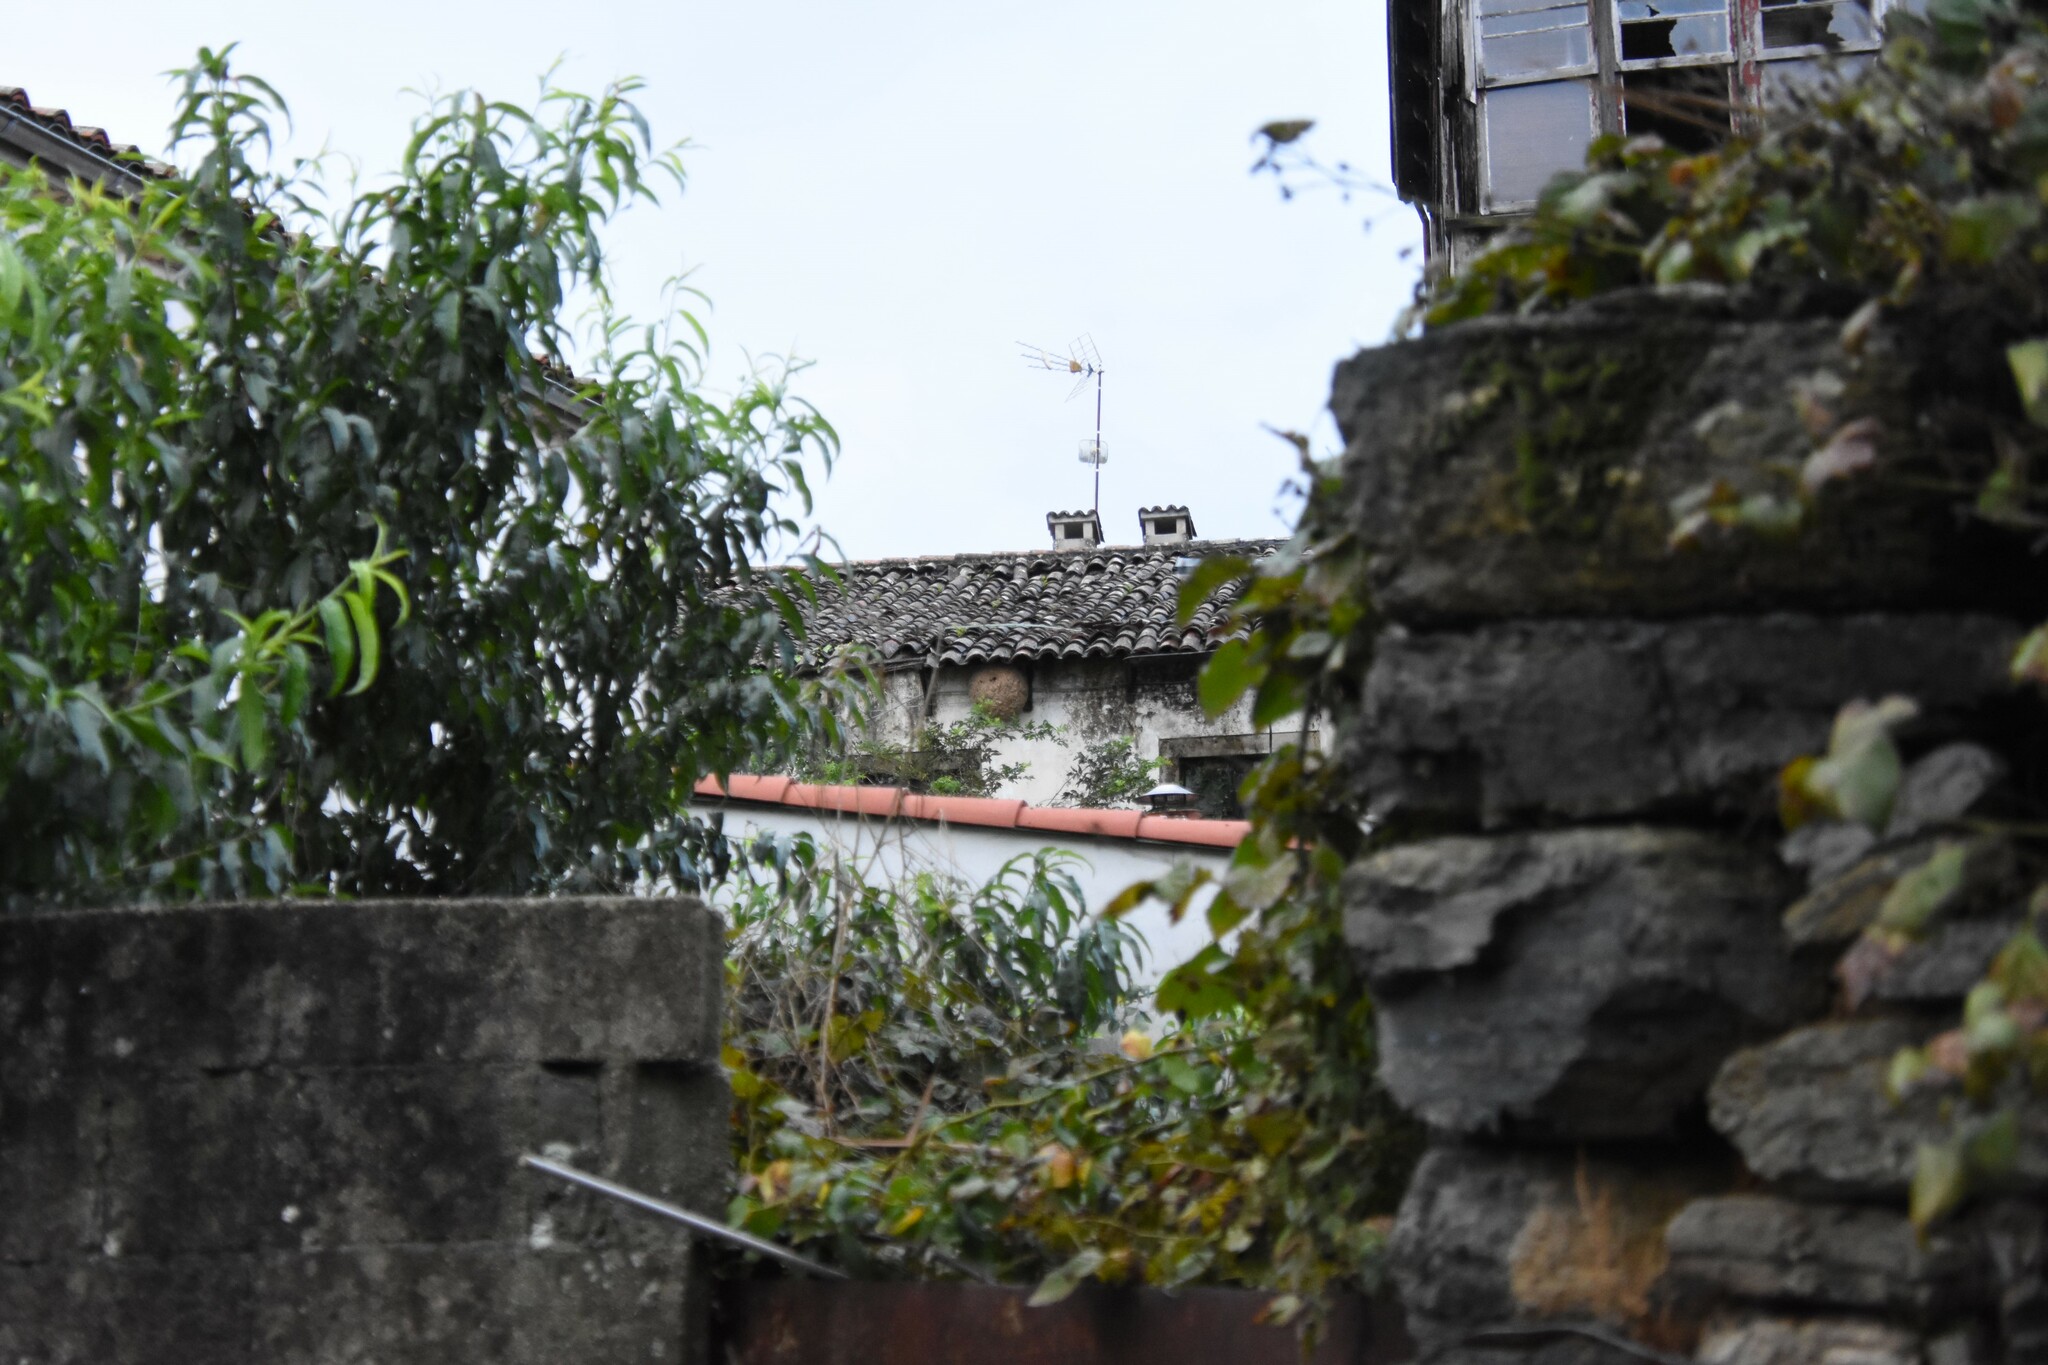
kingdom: Animalia
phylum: Arthropoda
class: Insecta
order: Hymenoptera
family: Vespidae
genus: Vespa
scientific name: Vespa velutina
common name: Asian hornet
